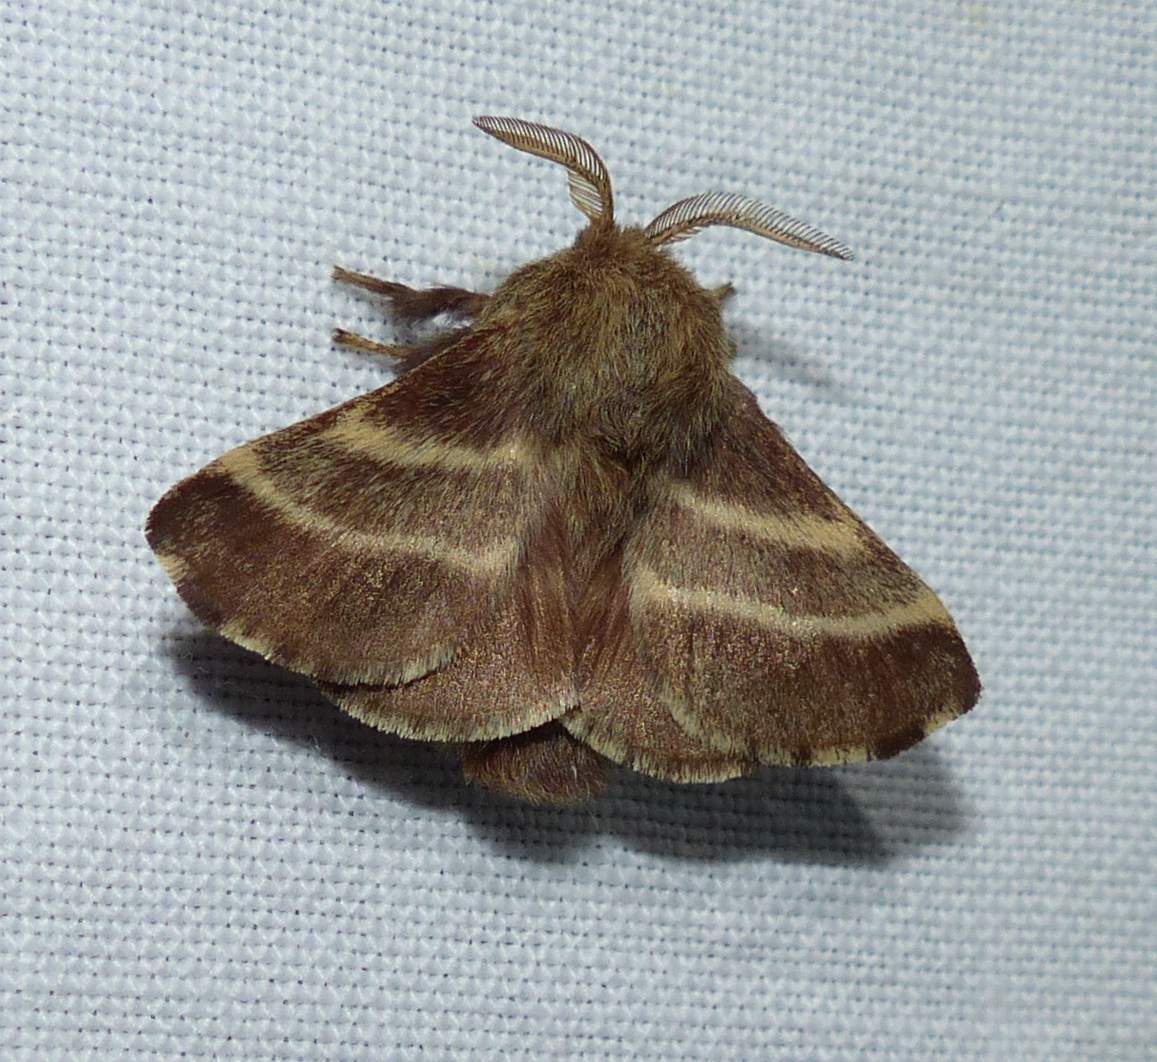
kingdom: Animalia
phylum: Arthropoda
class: Insecta
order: Lepidoptera
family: Lasiocampidae
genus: Malacosoma
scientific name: Malacosoma americana
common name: Eastern tent caterpillar moth
